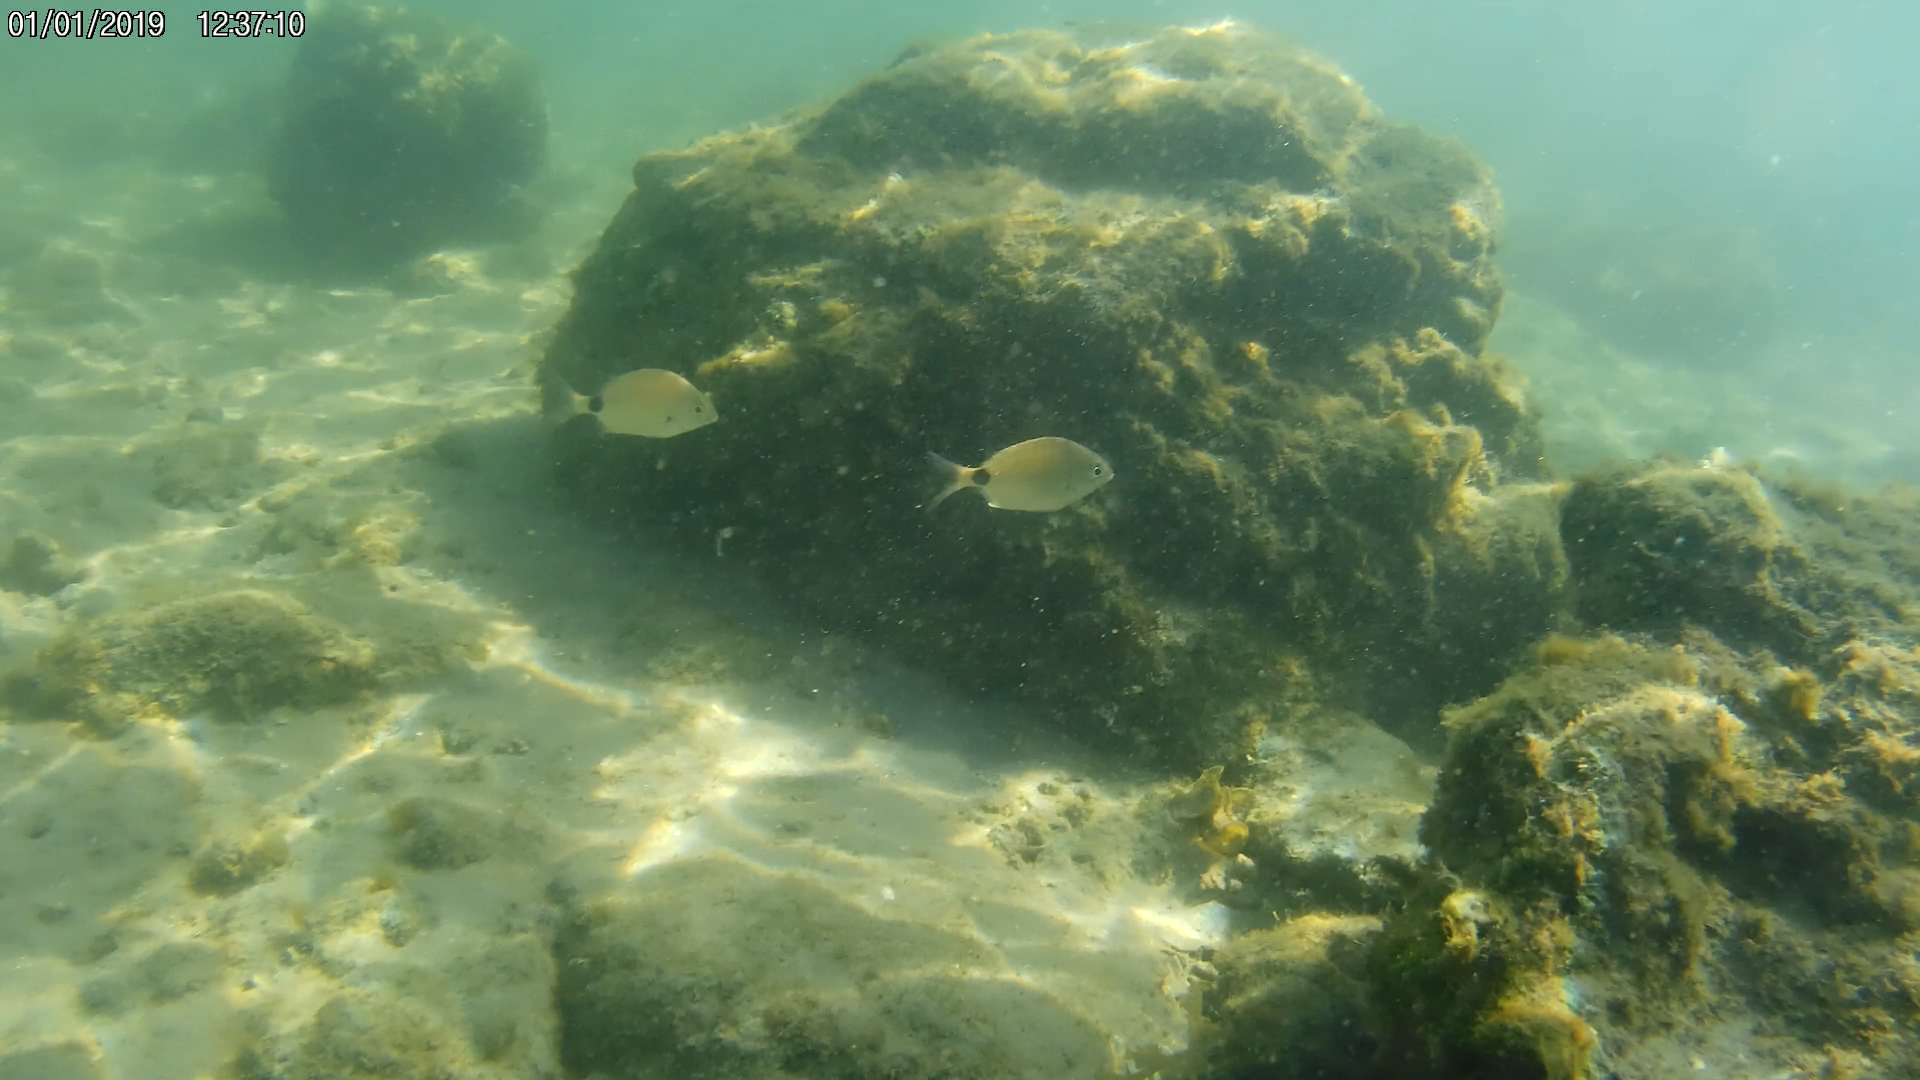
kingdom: Animalia
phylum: Chordata
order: Perciformes
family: Sparidae
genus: Diplodus
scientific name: Diplodus holbrookii
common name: Porgy
